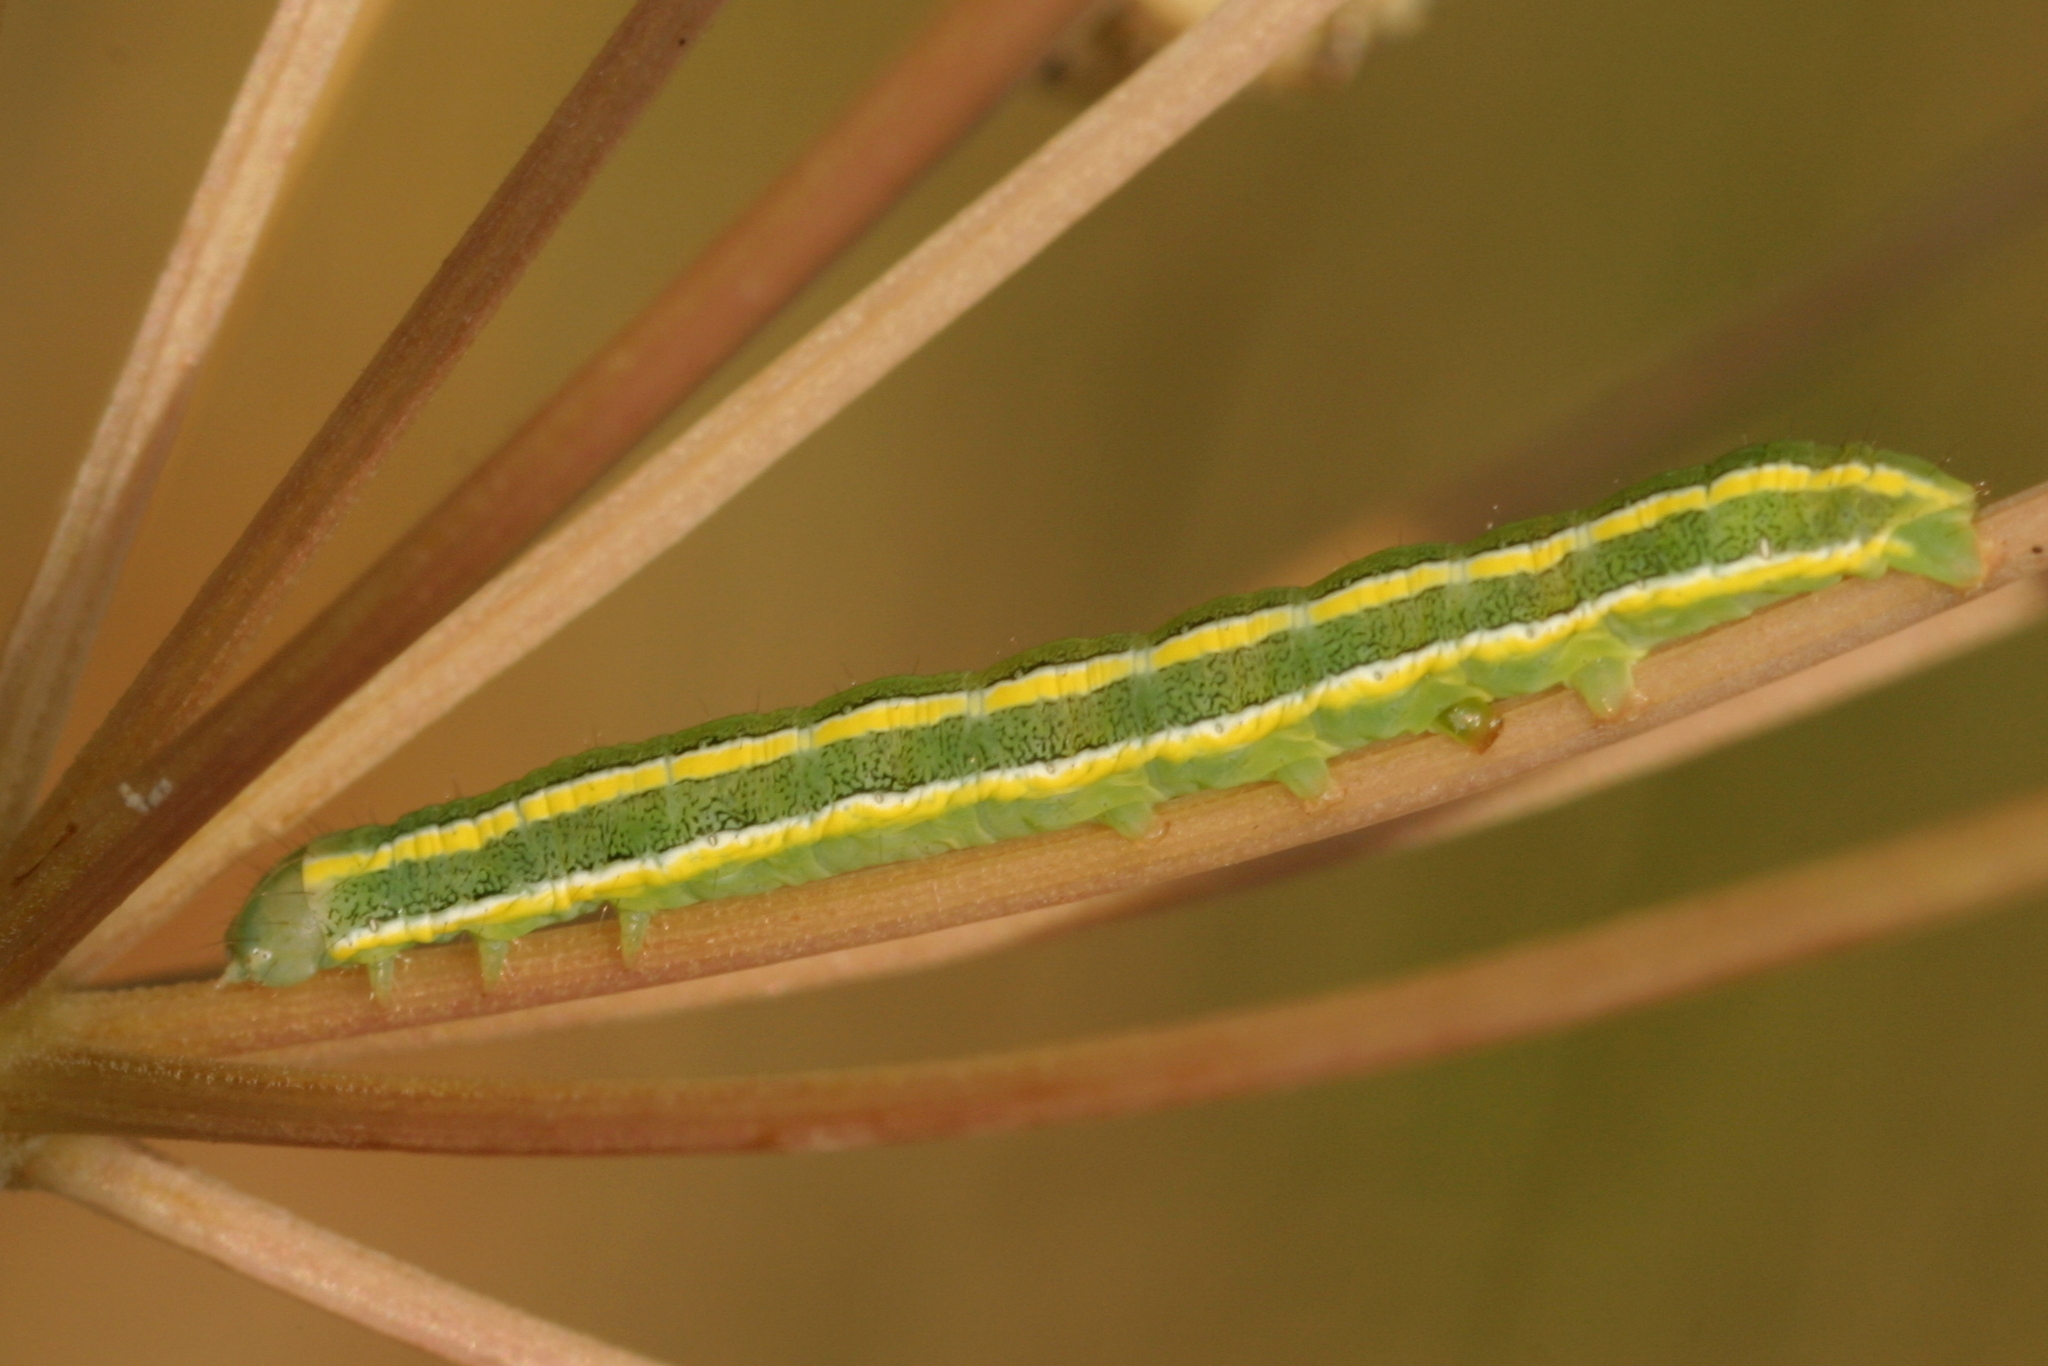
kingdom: Animalia
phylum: Arthropoda
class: Insecta
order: Lepidoptera
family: Noctuidae
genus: Ceramica
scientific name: Ceramica pisi
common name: Broom moth
